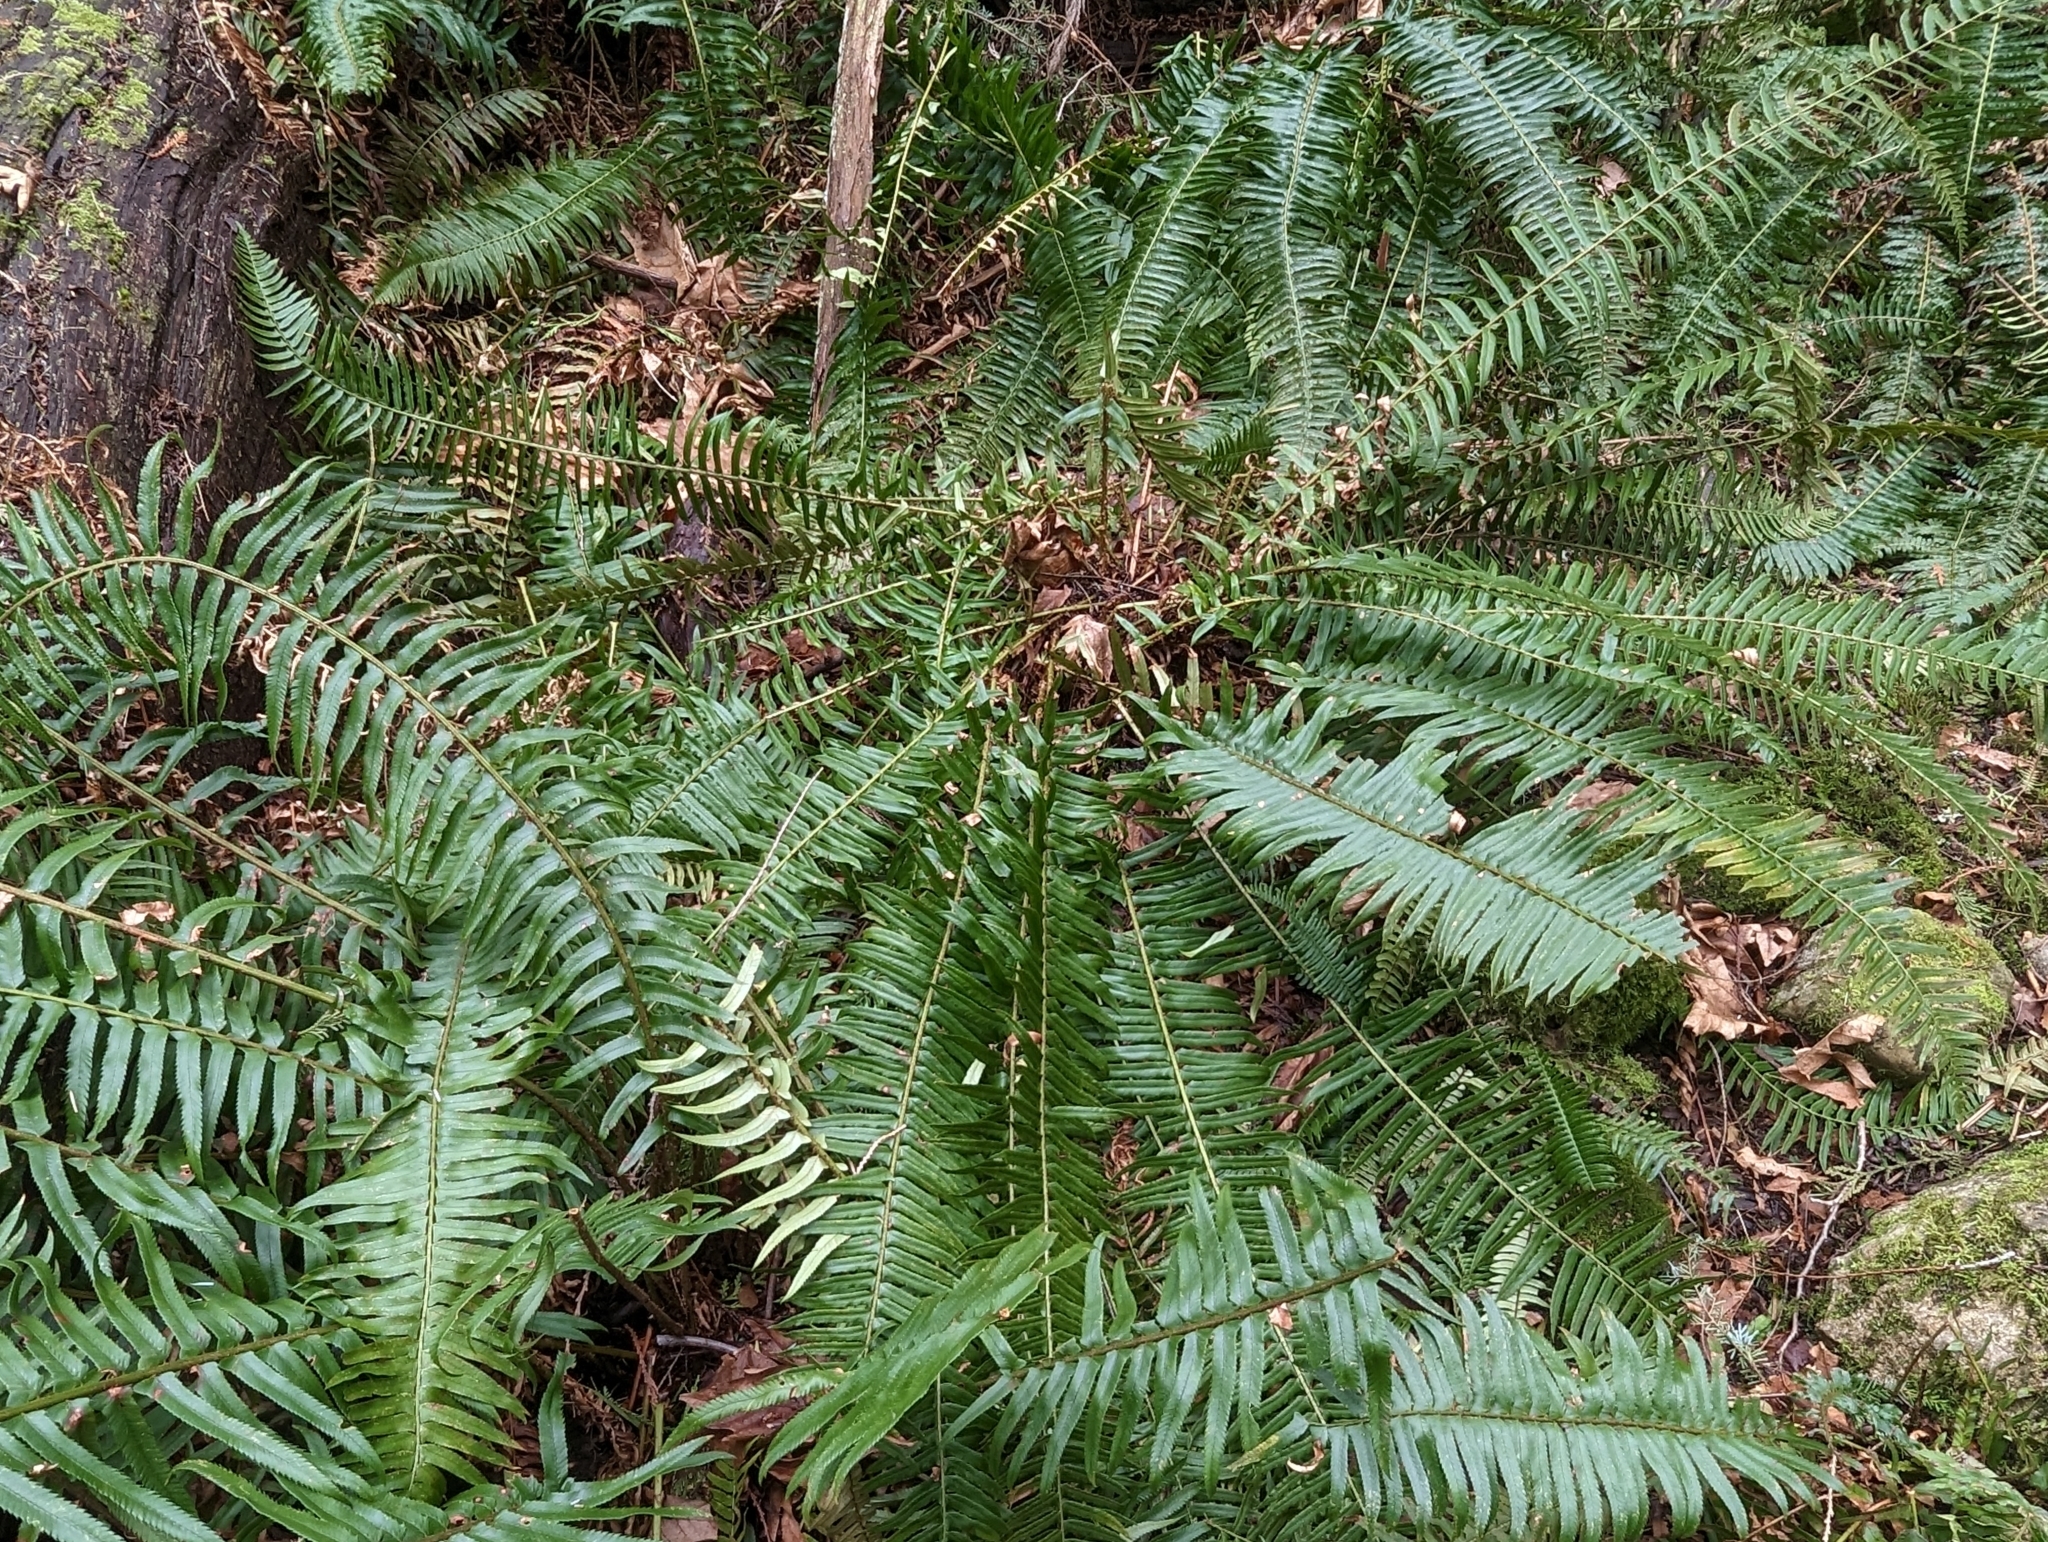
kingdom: Plantae
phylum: Tracheophyta
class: Polypodiopsida
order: Polypodiales
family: Dryopteridaceae
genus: Polystichum
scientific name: Polystichum munitum
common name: Western sword-fern
